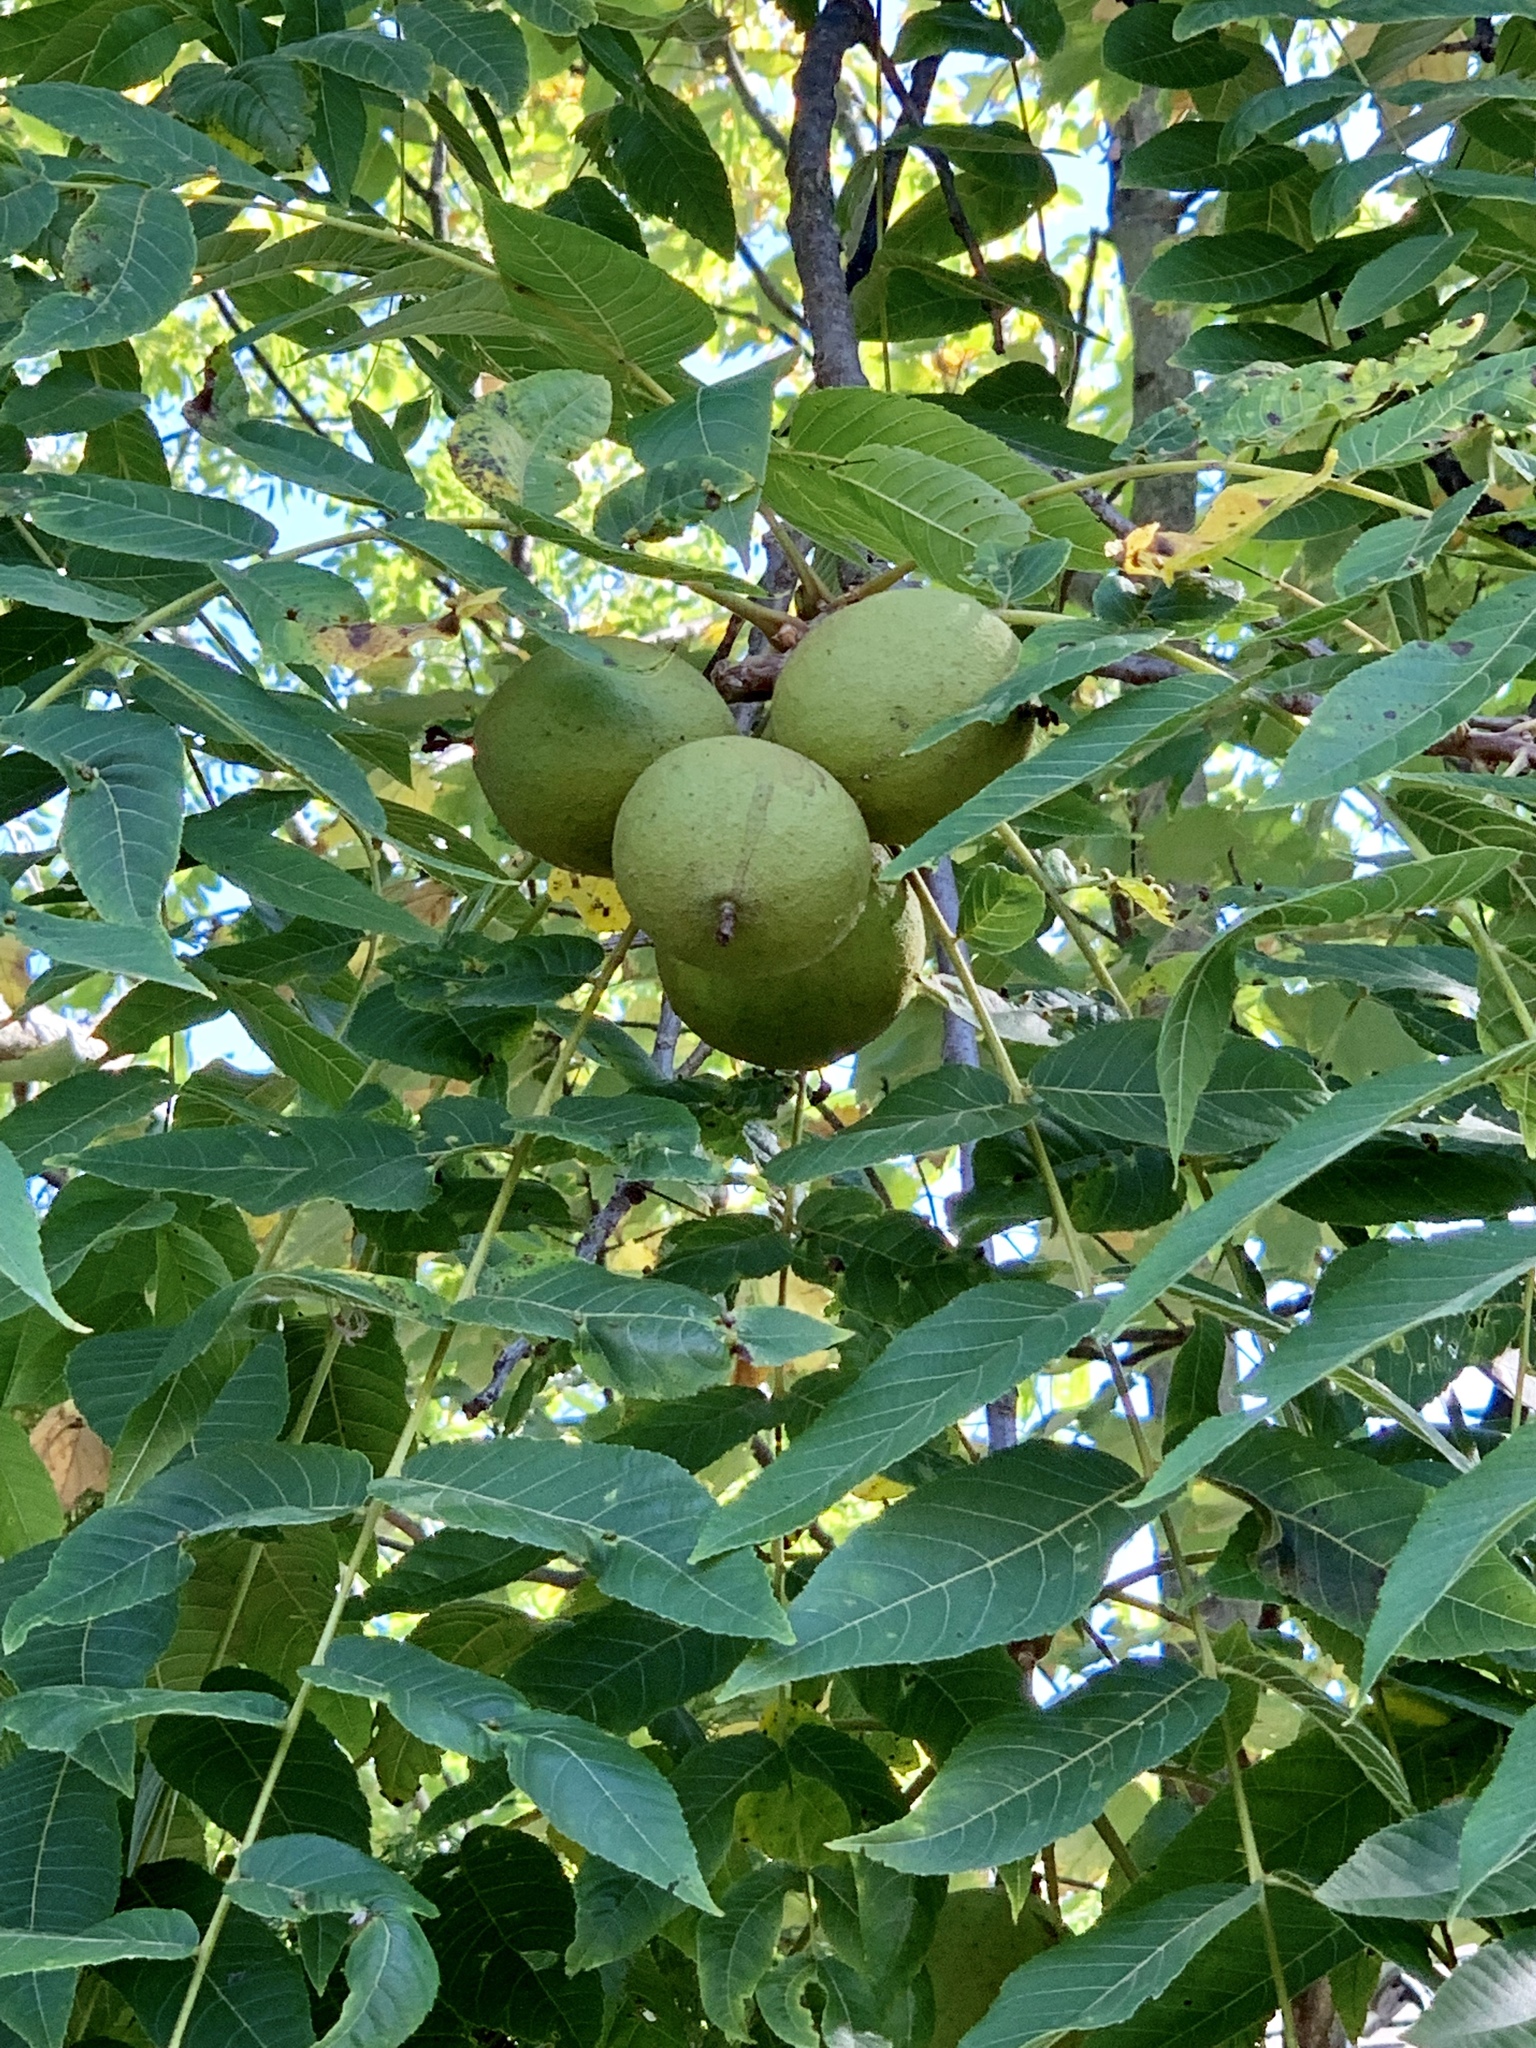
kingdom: Plantae
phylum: Tracheophyta
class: Magnoliopsida
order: Fagales
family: Juglandaceae
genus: Juglans
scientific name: Juglans nigra
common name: Black walnut
